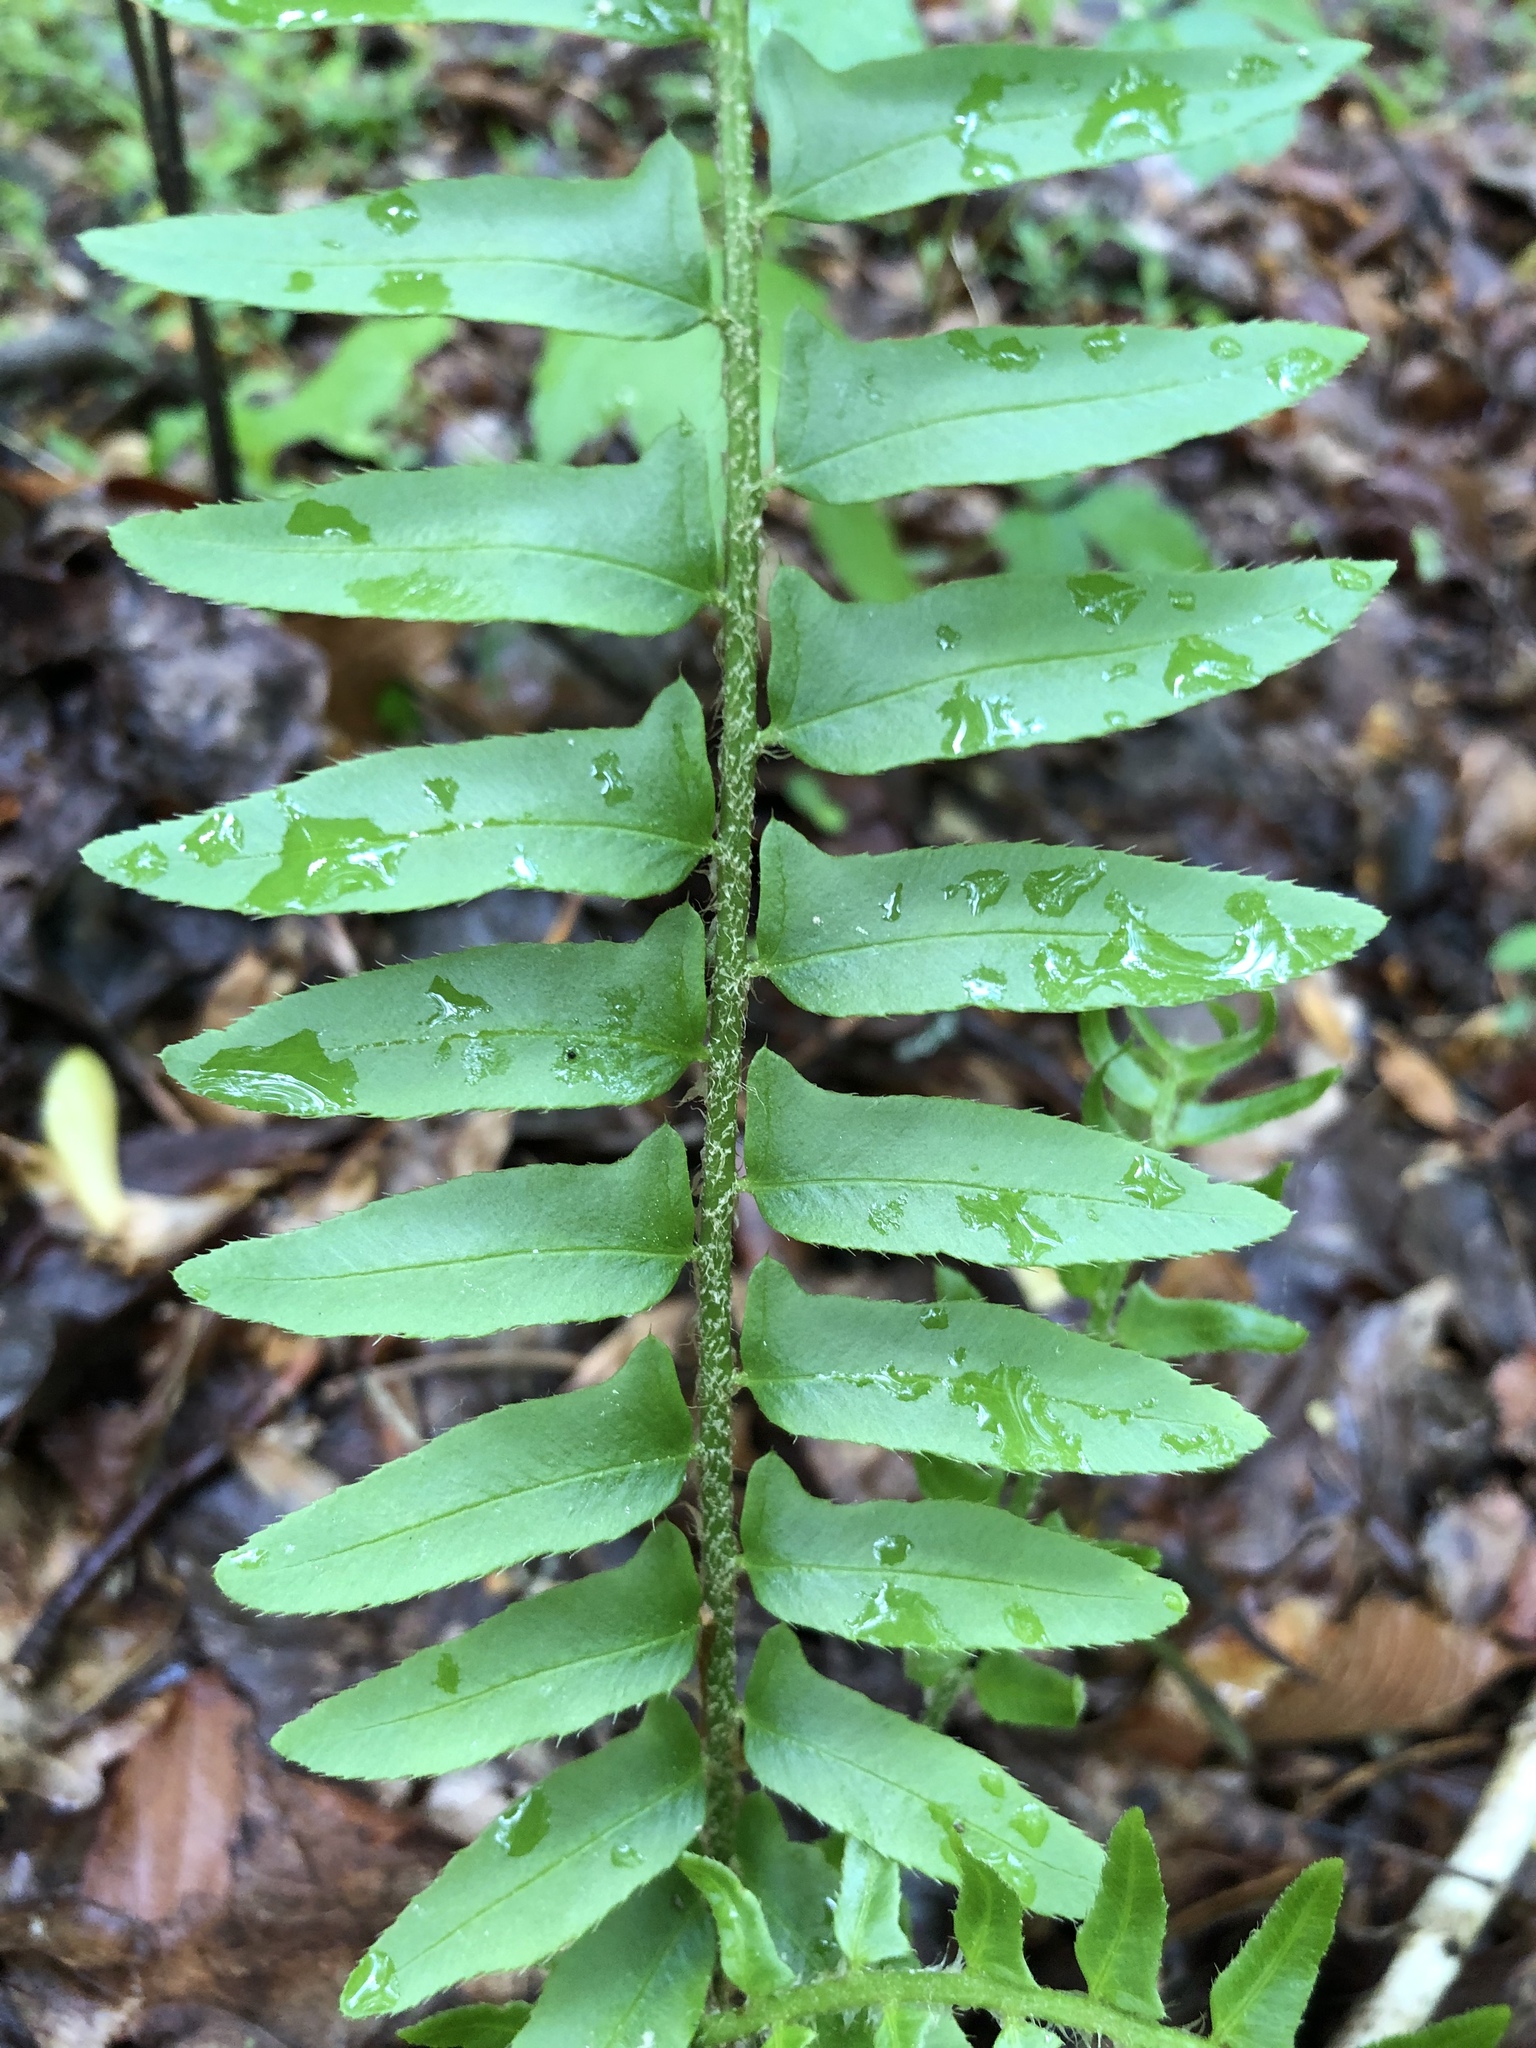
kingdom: Plantae
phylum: Tracheophyta
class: Polypodiopsida
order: Polypodiales
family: Dryopteridaceae
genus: Polystichum
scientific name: Polystichum acrostichoides
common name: Christmas fern
